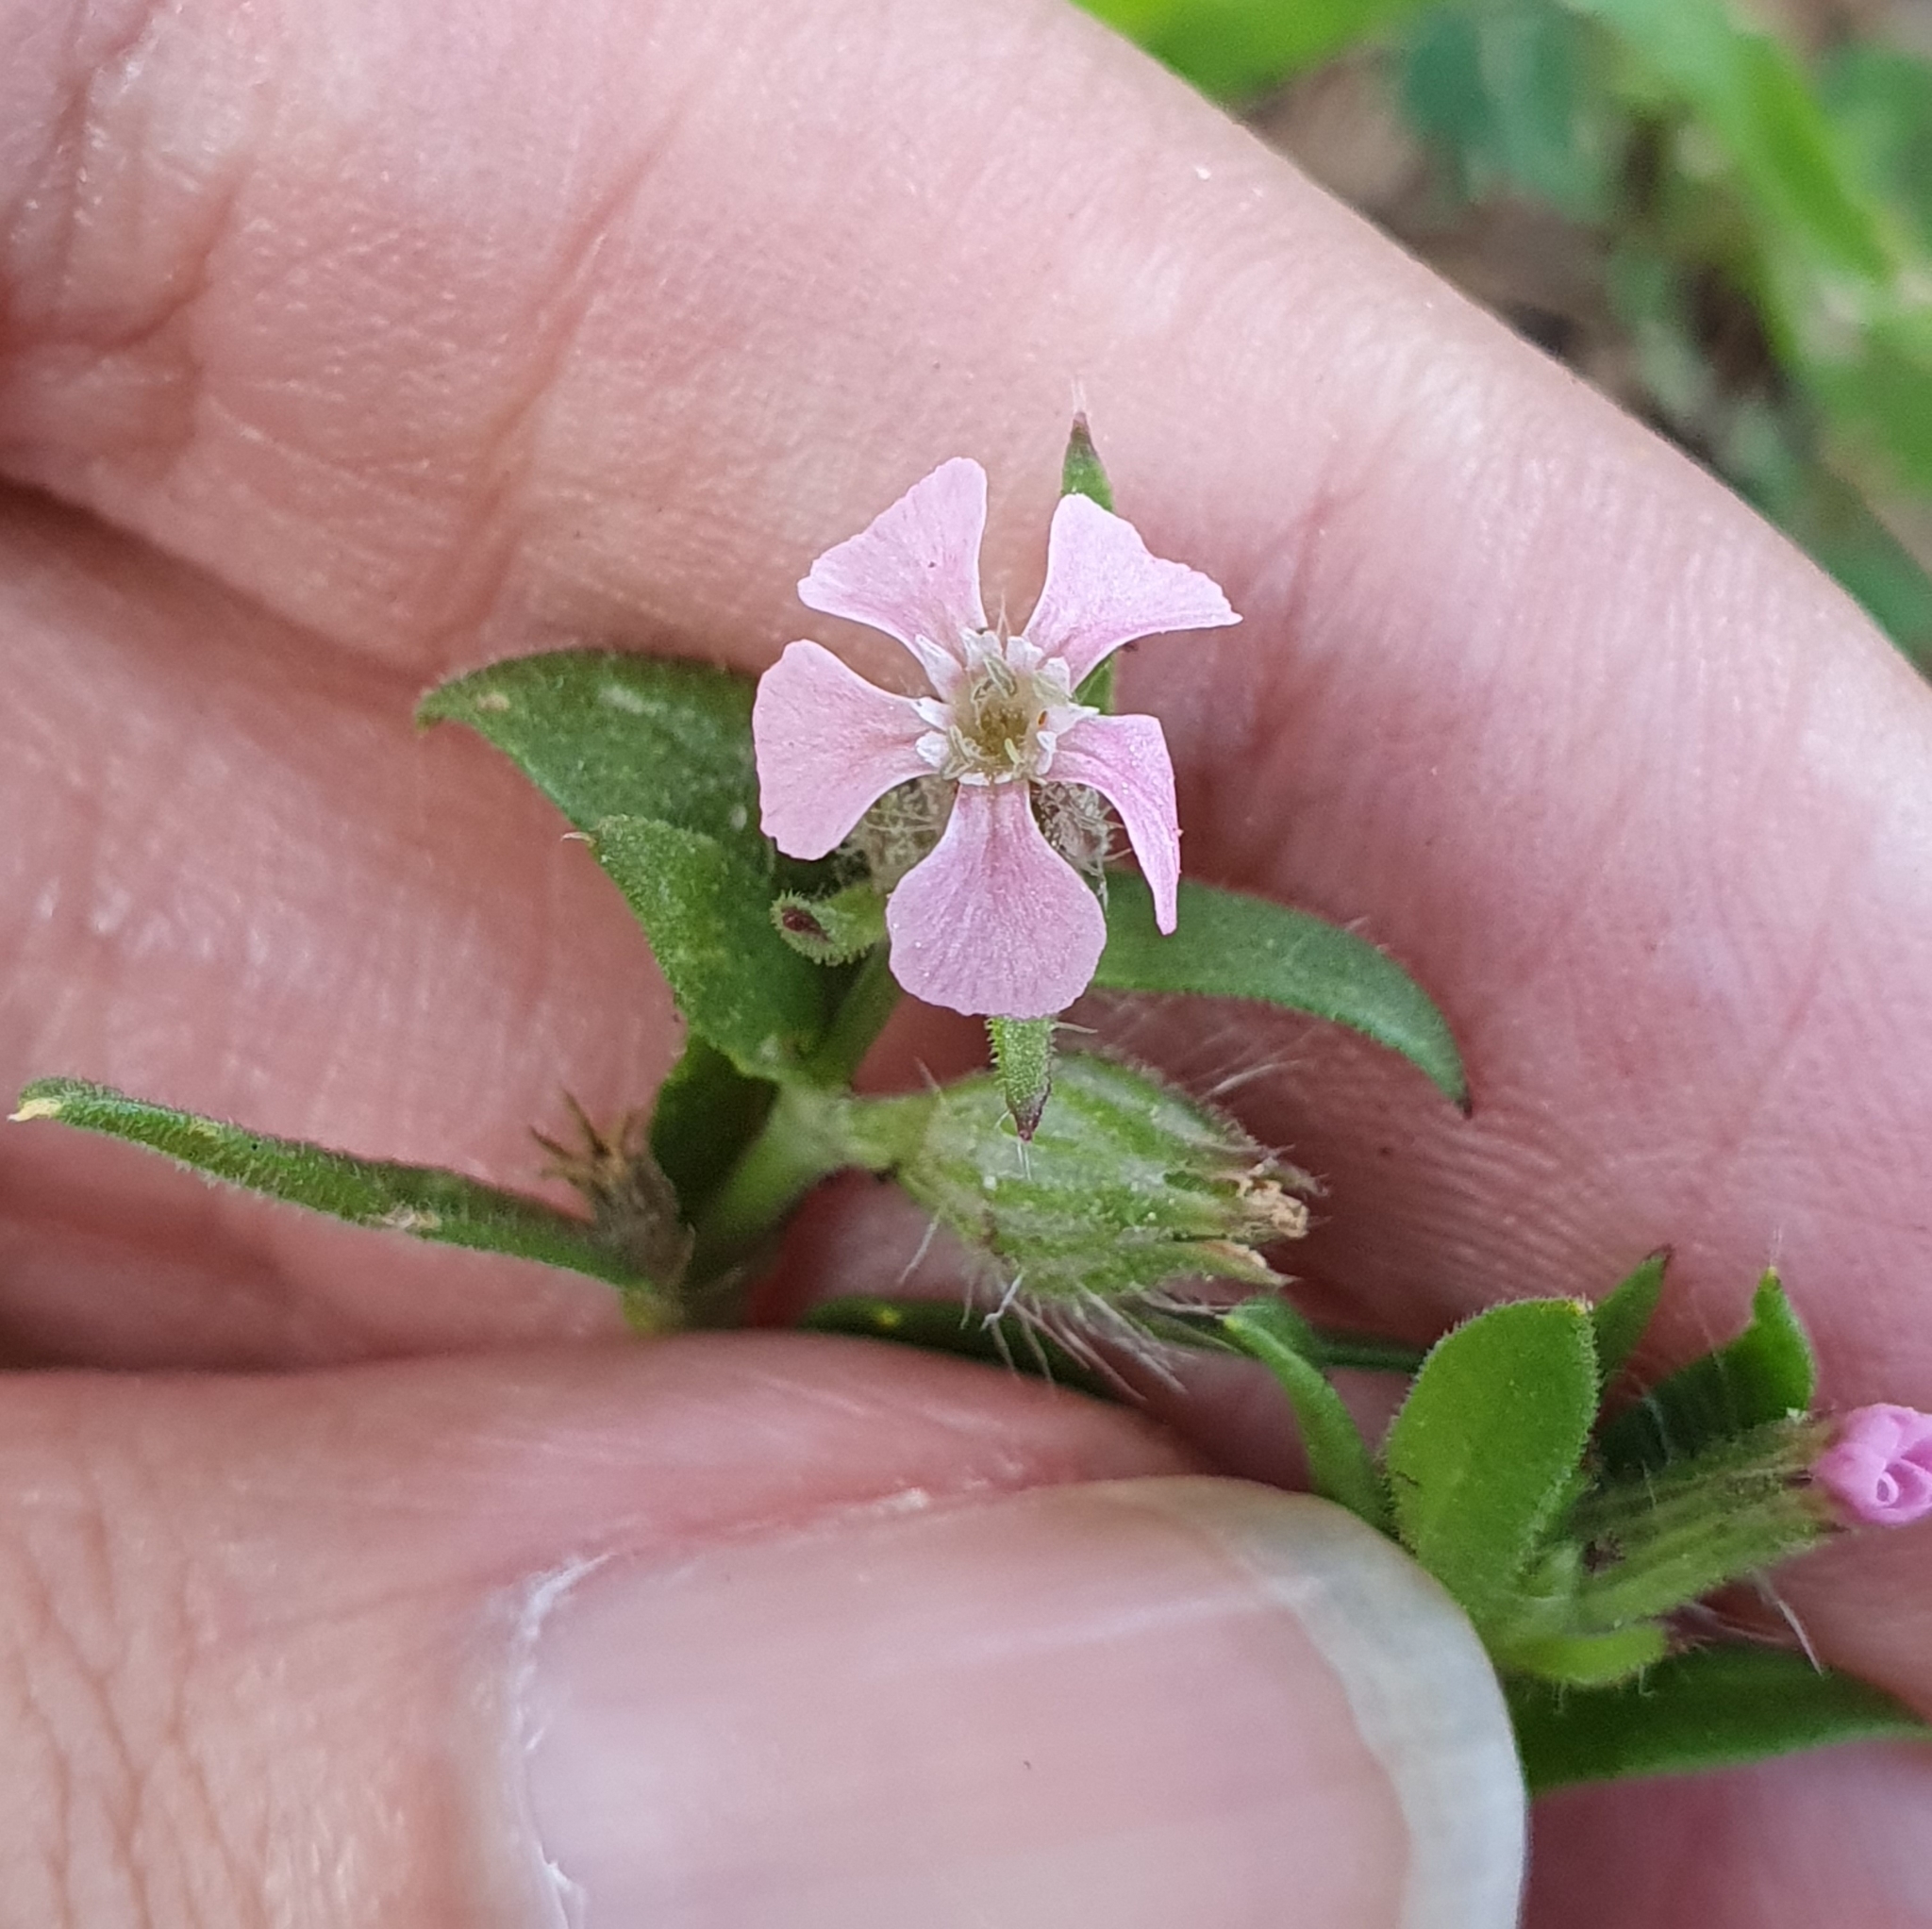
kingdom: Plantae
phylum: Tracheophyta
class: Magnoliopsida
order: Caryophyllales
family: Caryophyllaceae
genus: Silene
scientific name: Silene gallica
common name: Small-flowered catchfly
